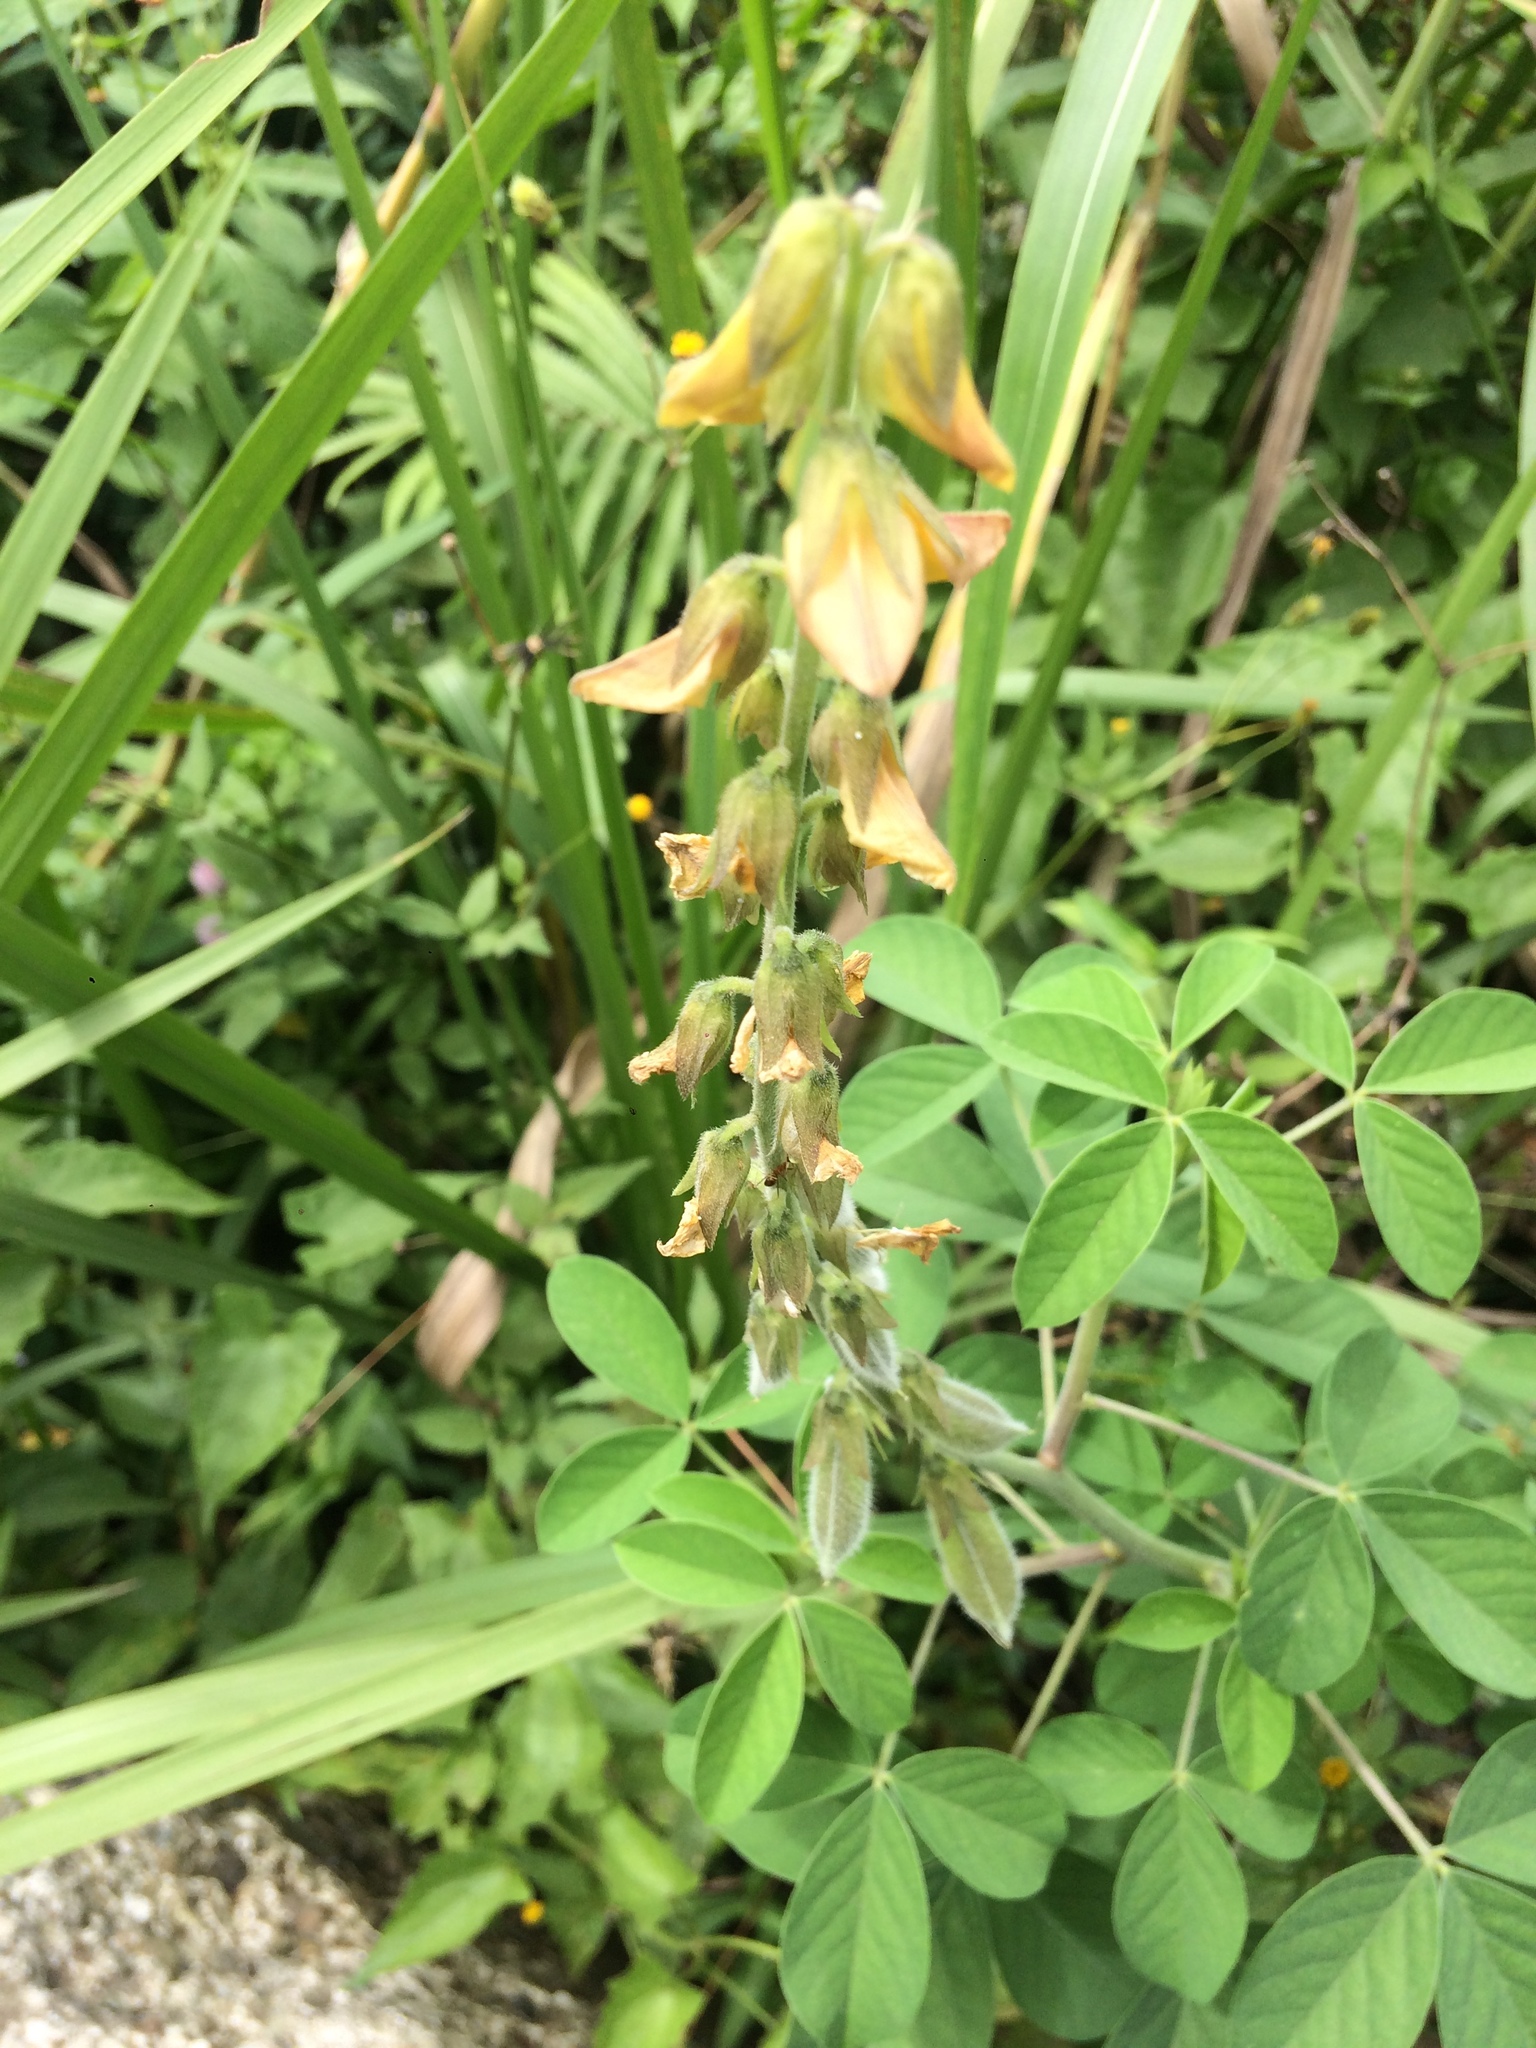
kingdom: Plantae
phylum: Tracheophyta
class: Magnoliopsida
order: Fabales
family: Fabaceae
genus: Crotalaria
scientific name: Crotalaria pallida
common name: Smooth rattlebox
